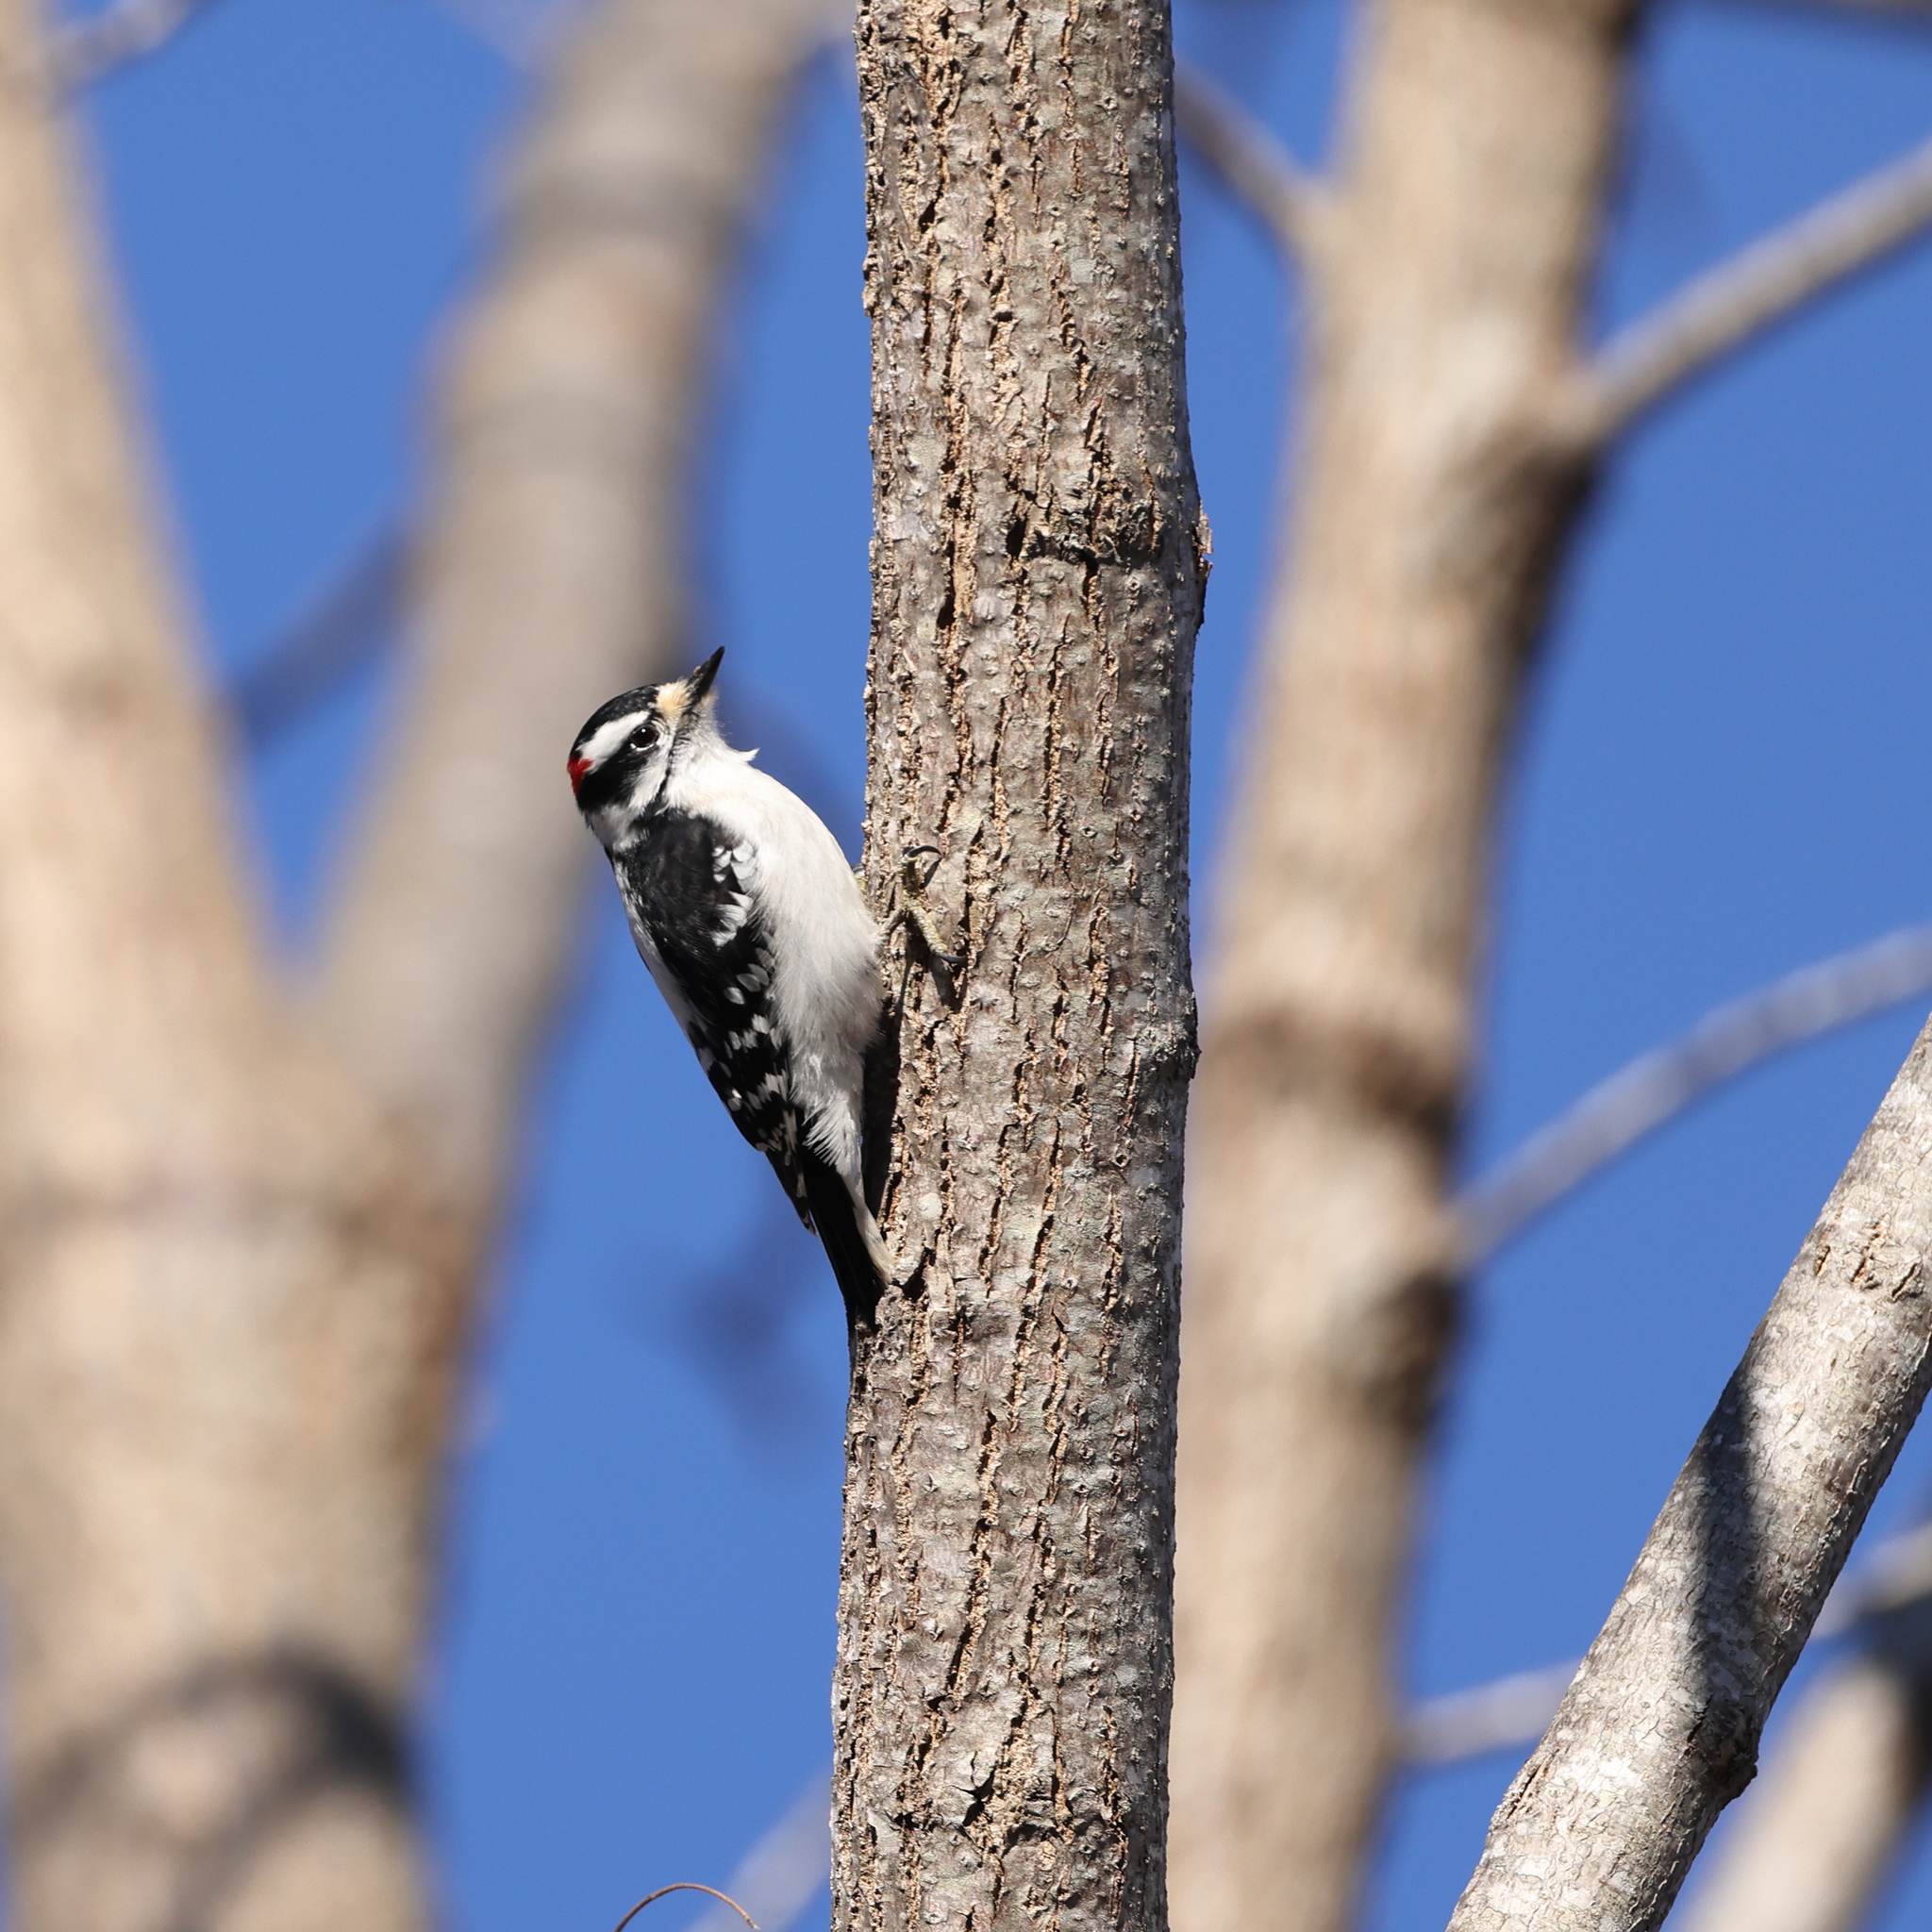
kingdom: Animalia
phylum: Chordata
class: Aves
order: Piciformes
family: Picidae
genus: Dryobates
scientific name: Dryobates pubescens
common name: Downy woodpecker
